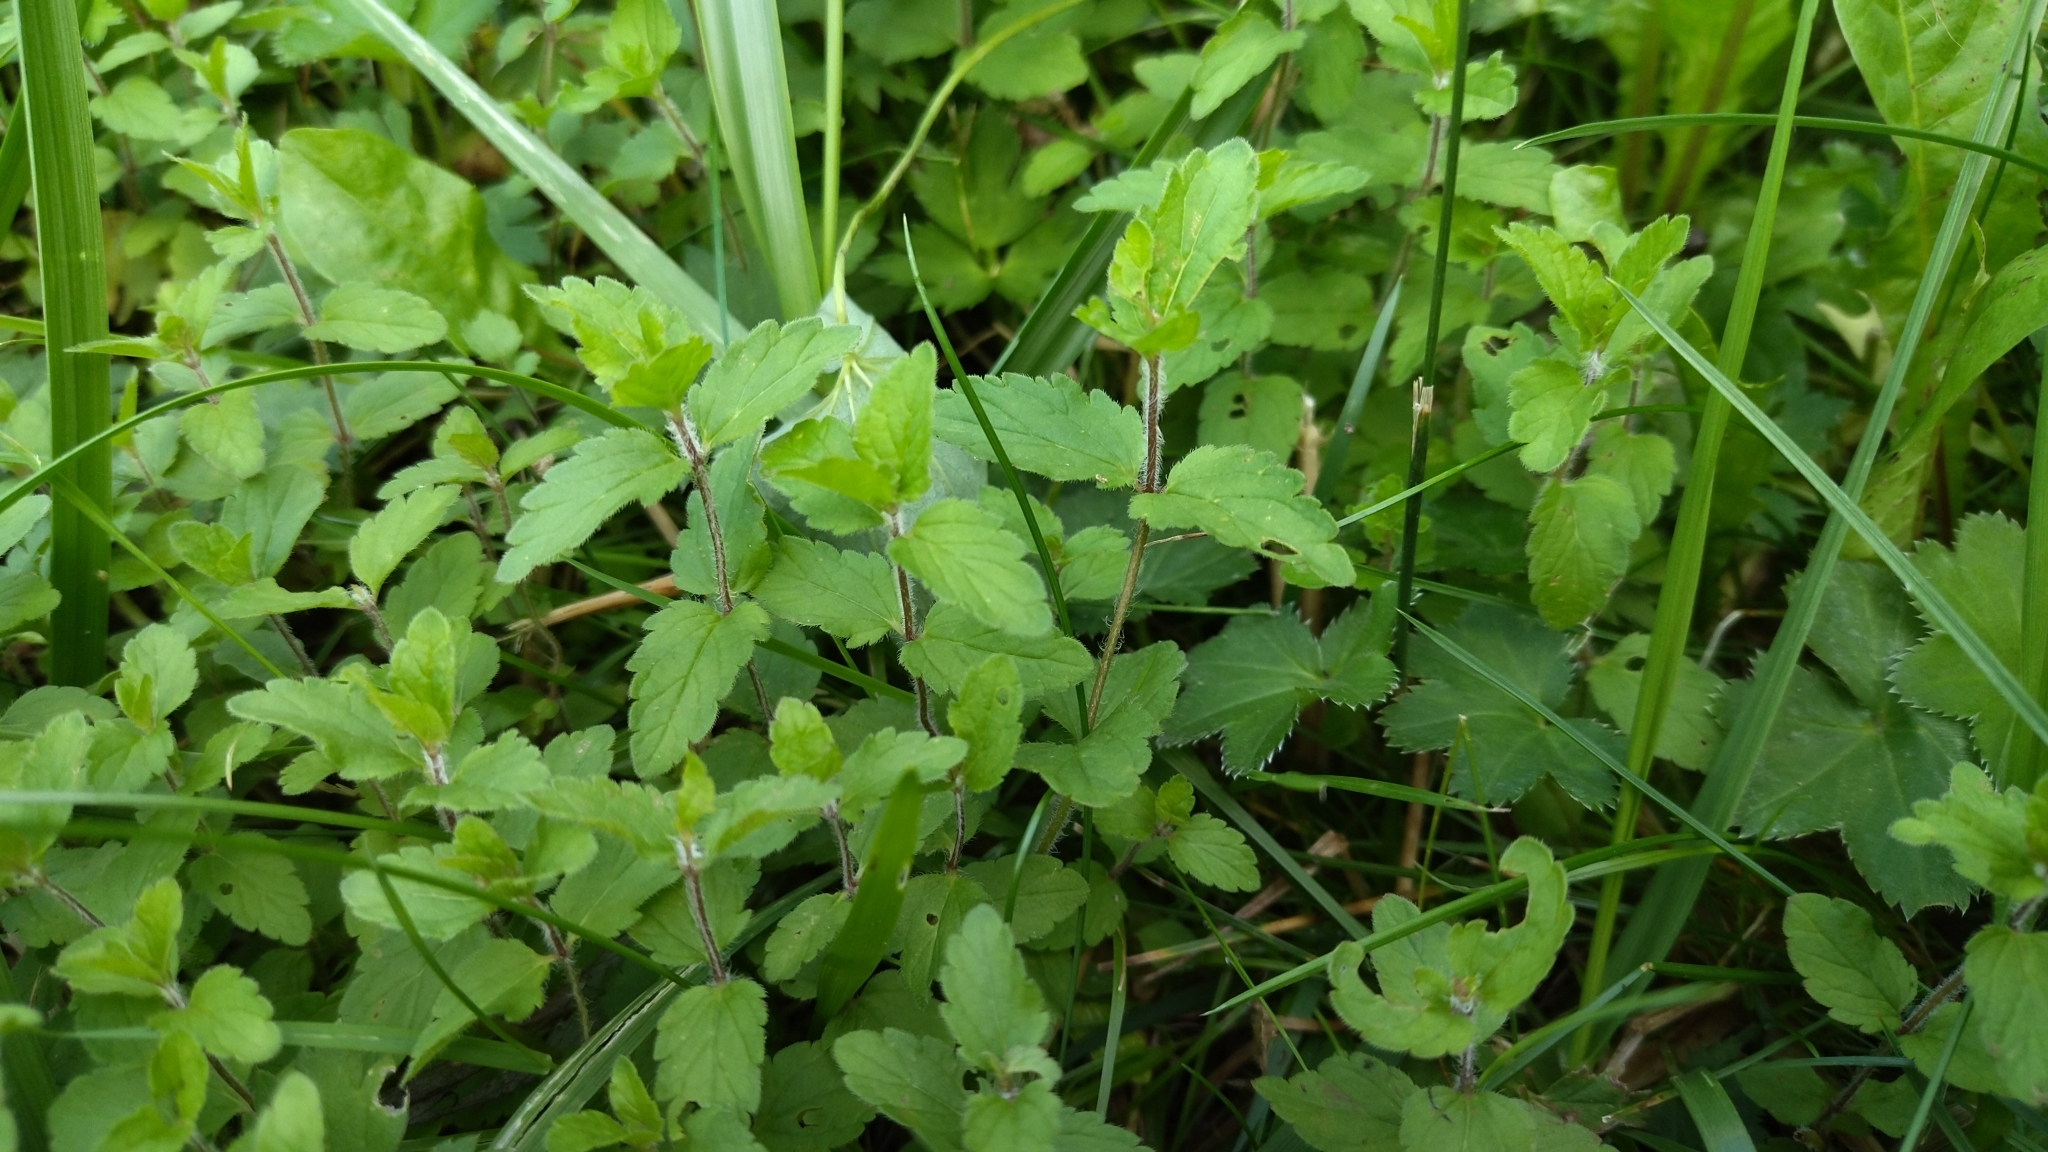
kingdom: Plantae
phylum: Tracheophyta
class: Magnoliopsida
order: Lamiales
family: Plantaginaceae
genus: Veronica
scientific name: Veronica chamaedrys
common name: Germander speedwell
